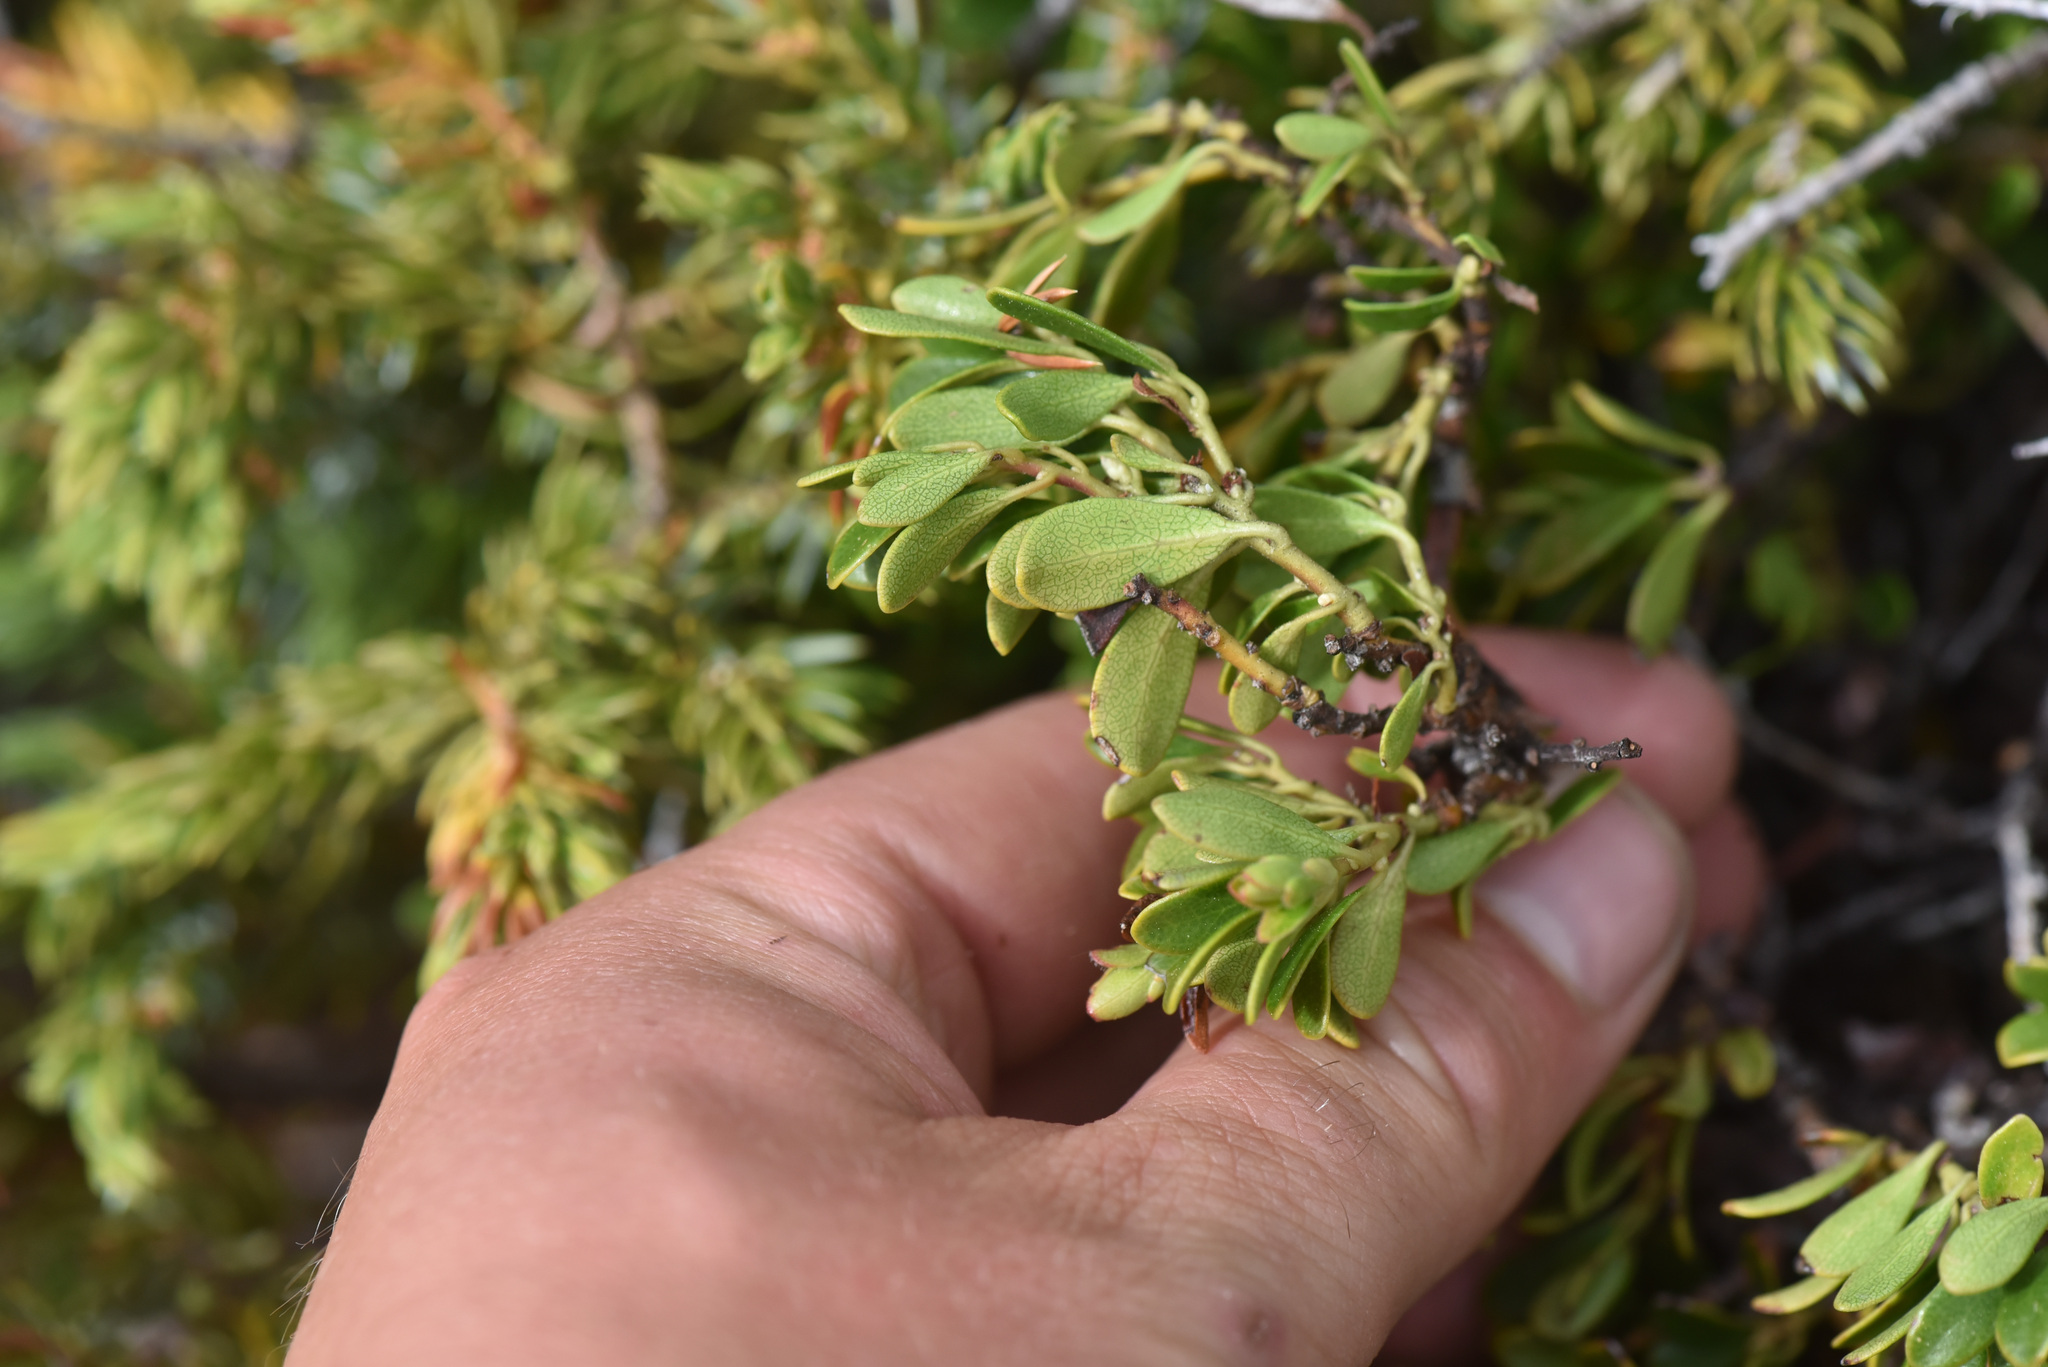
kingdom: Plantae
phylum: Tracheophyta
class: Magnoliopsida
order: Ericales
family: Ericaceae
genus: Arctostaphylos
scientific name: Arctostaphylos uva-ursi
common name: Bearberry
